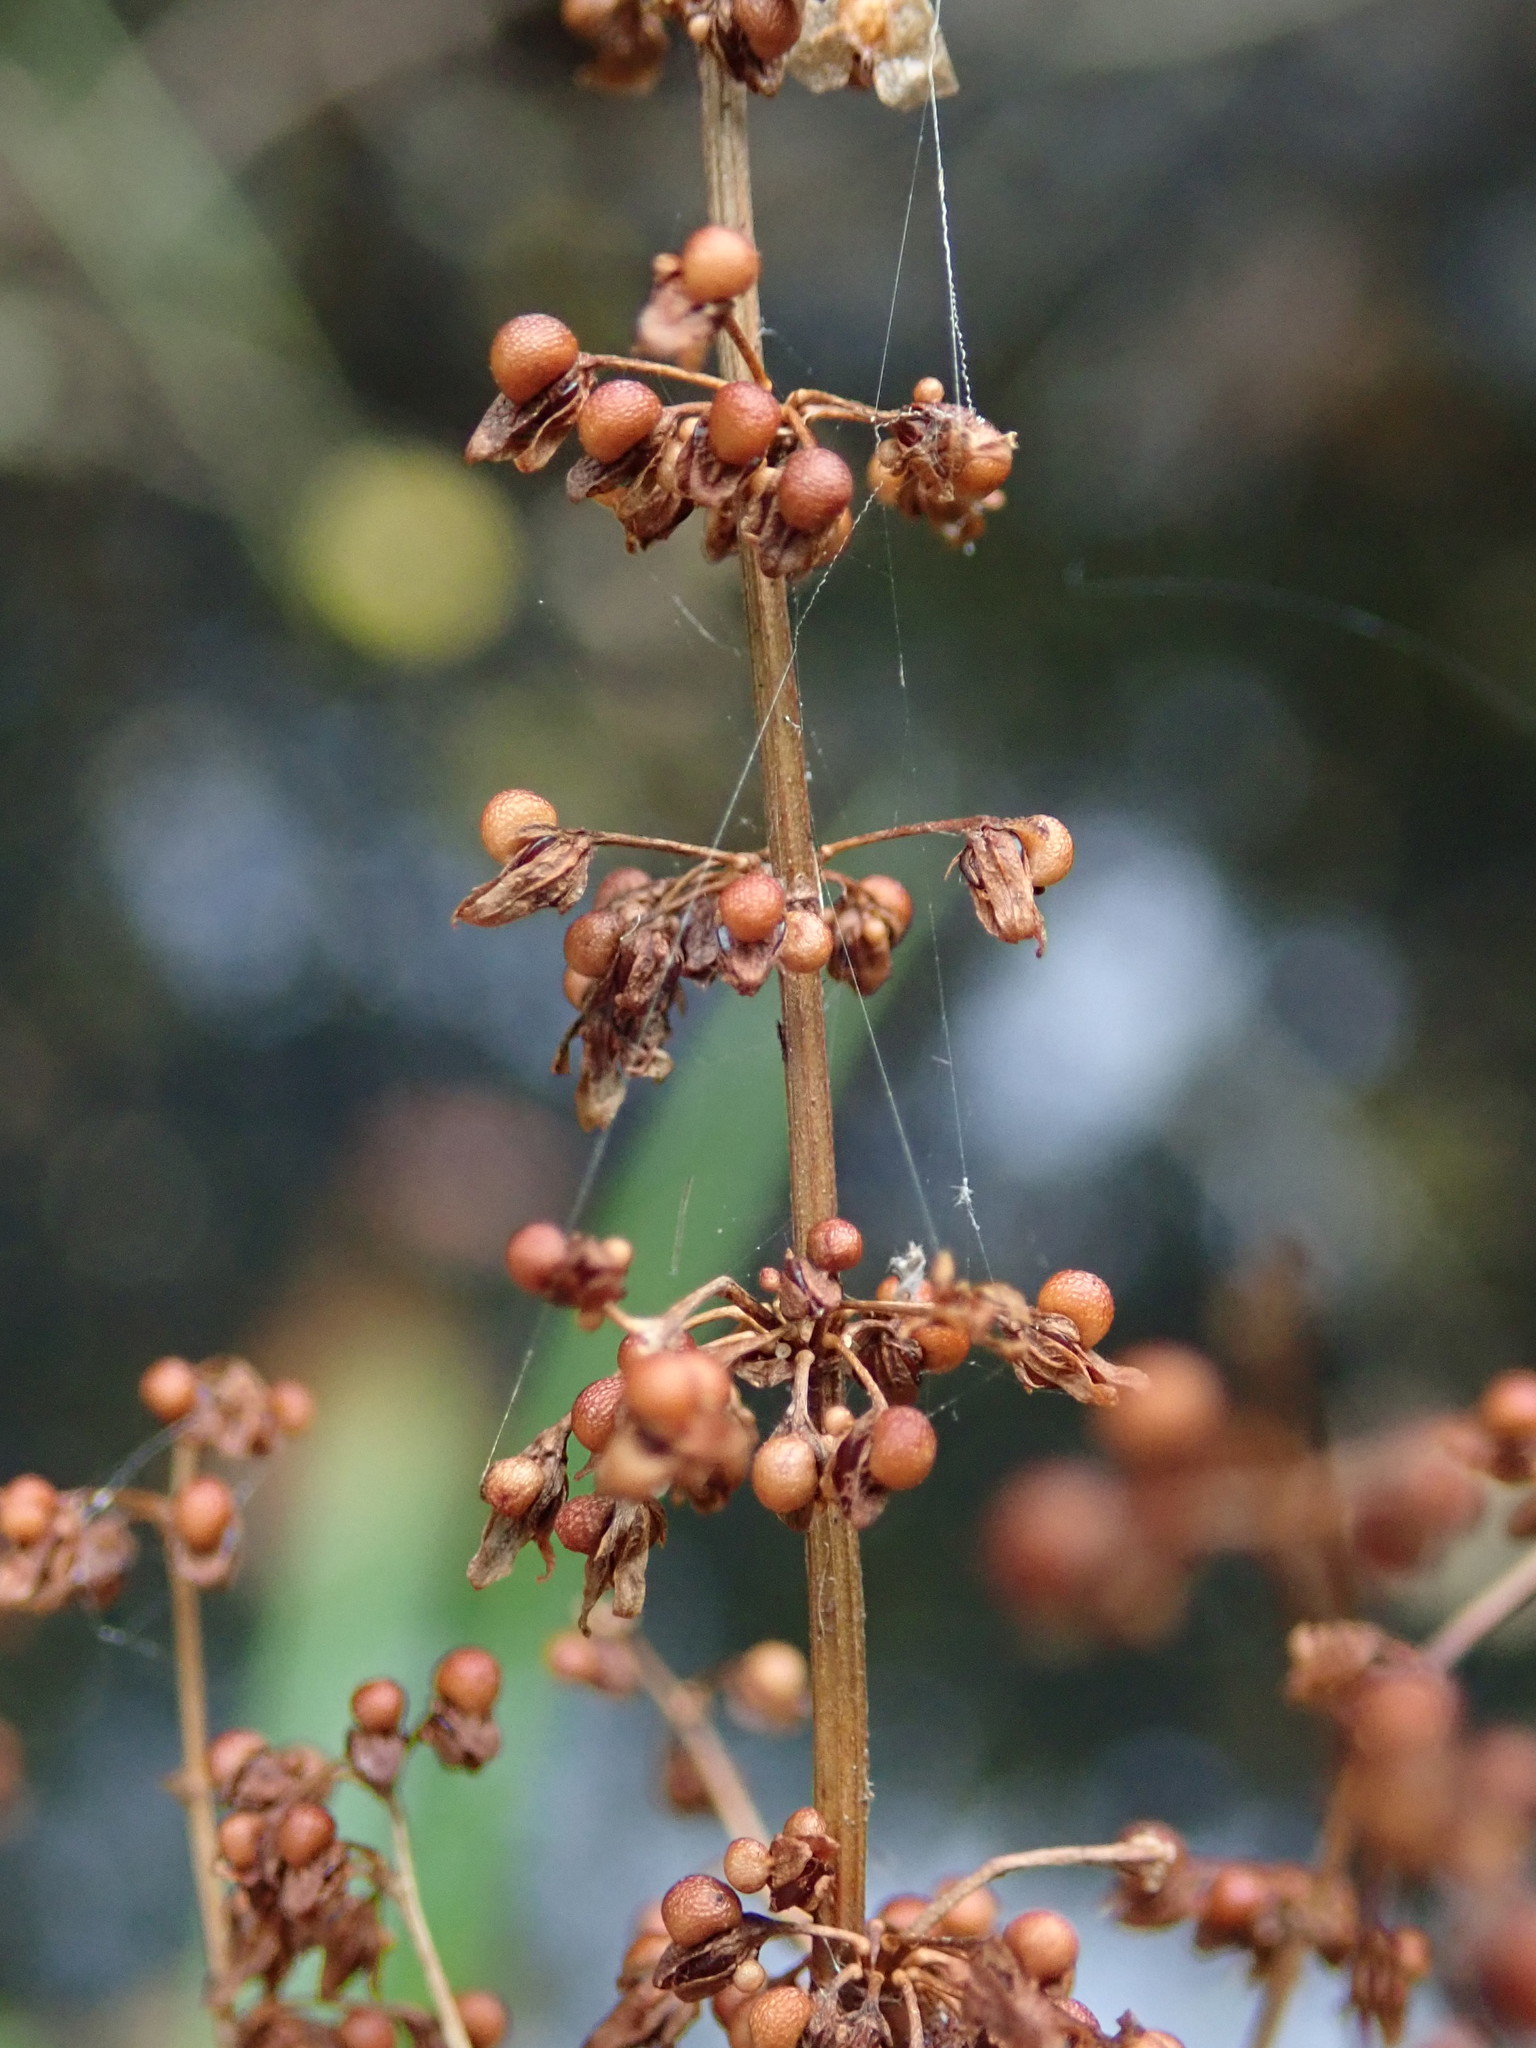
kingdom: Plantae
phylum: Tracheophyta
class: Magnoliopsida
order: Caryophyllales
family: Polygonaceae
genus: Rumex
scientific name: Rumex sanguineus
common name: Wood dock
